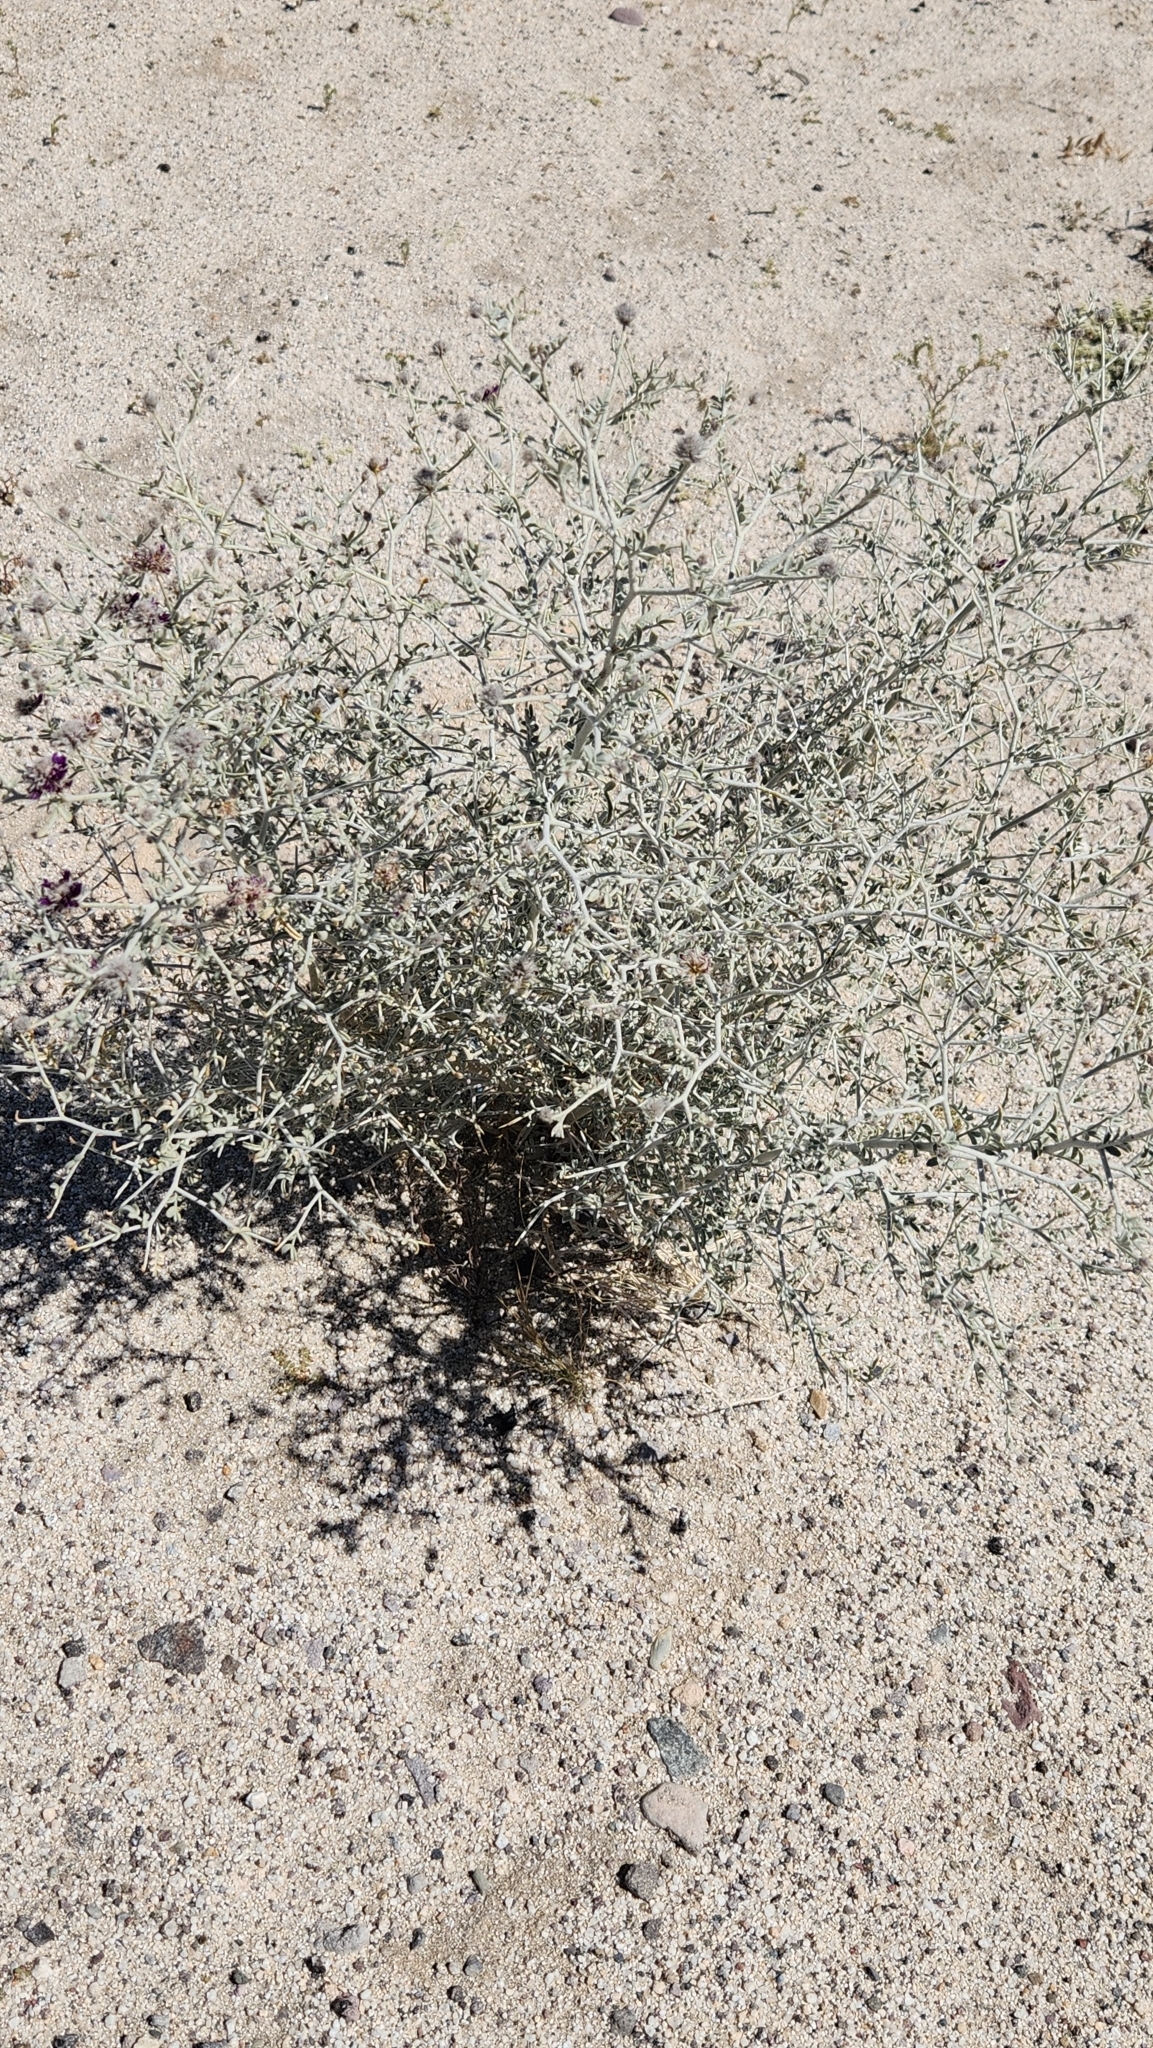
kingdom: Plantae
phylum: Tracheophyta
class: Magnoliopsida
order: Fabales
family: Fabaceae
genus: Psorothamnus
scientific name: Psorothamnus emoryi
